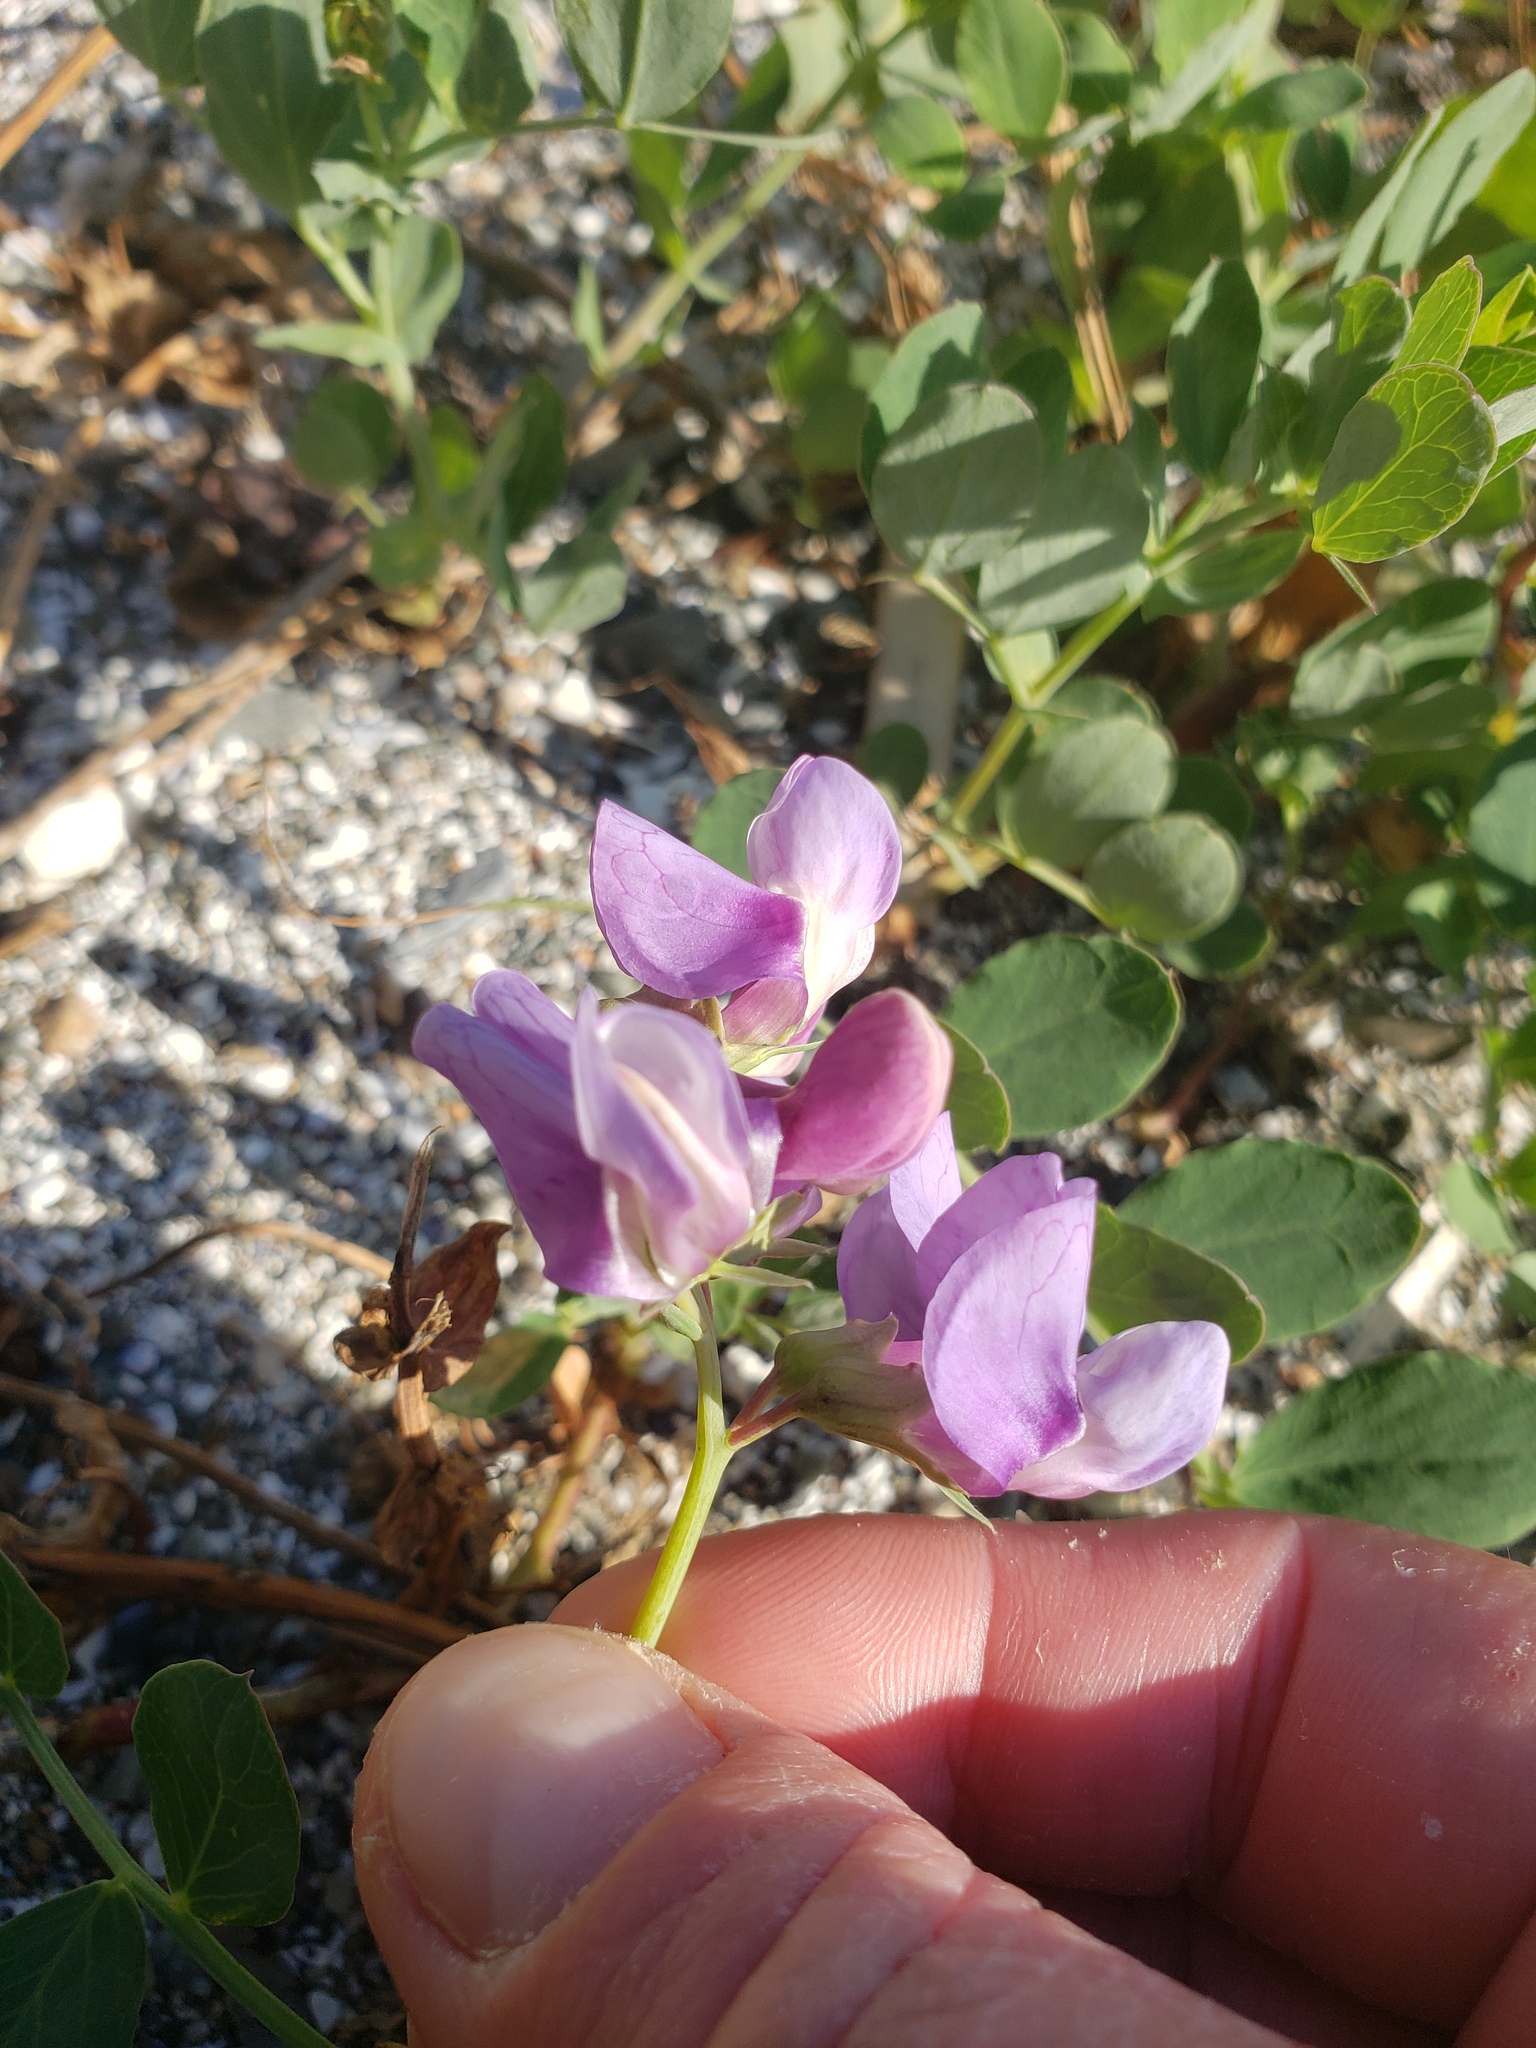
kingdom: Plantae
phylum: Tracheophyta
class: Magnoliopsida
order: Fabales
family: Fabaceae
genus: Lathyrus
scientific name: Lathyrus japonicus
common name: Sea pea
